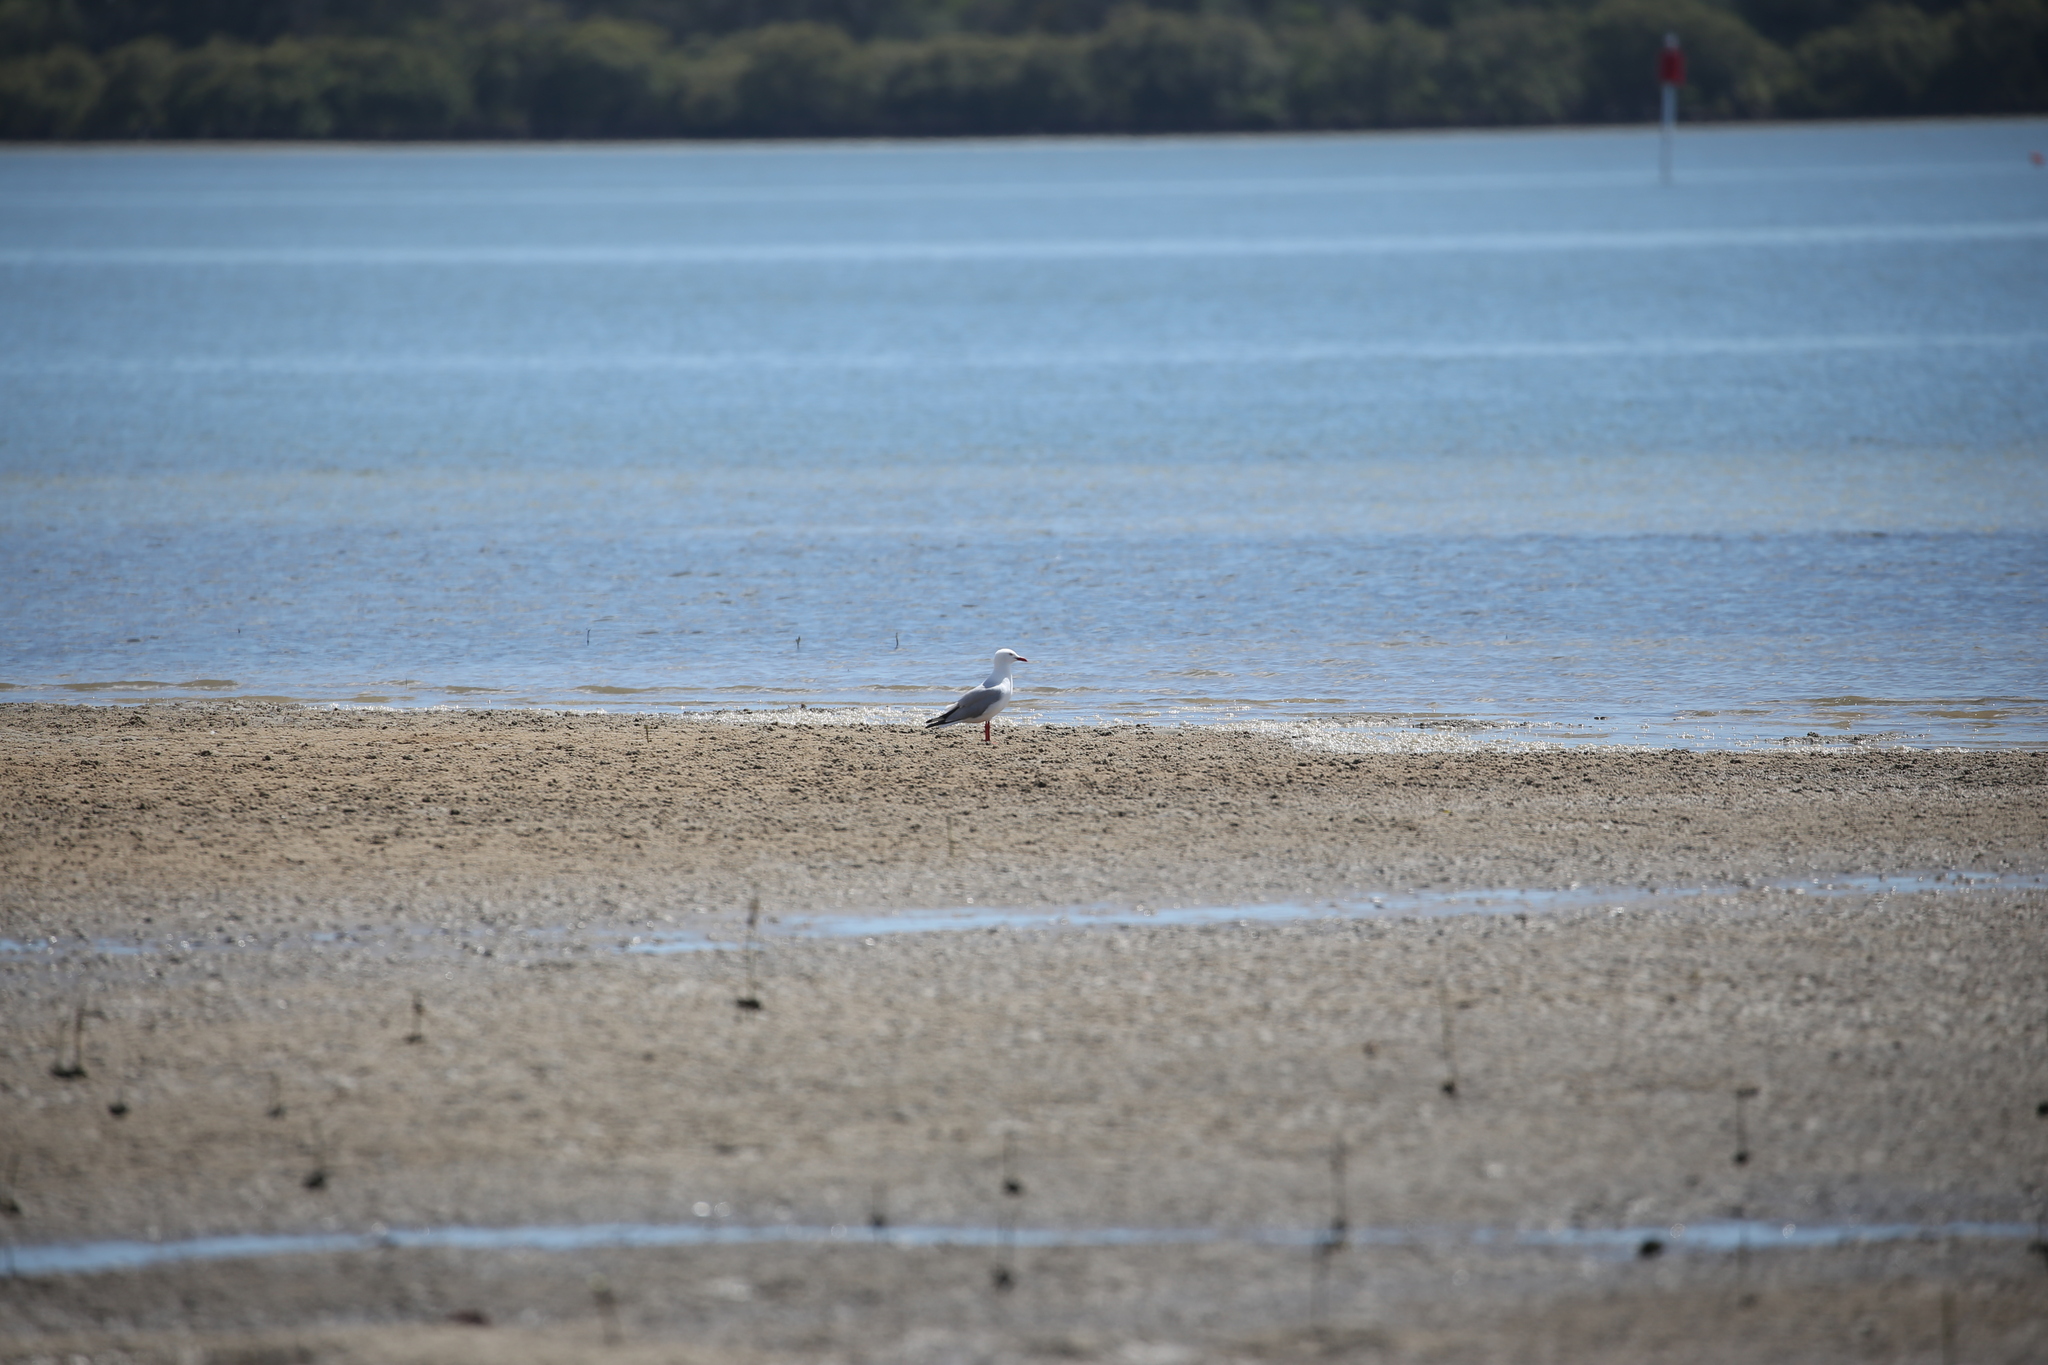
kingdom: Animalia
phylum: Chordata
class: Aves
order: Charadriiformes
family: Laridae
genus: Chroicocephalus
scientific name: Chroicocephalus novaehollandiae
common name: Silver gull
